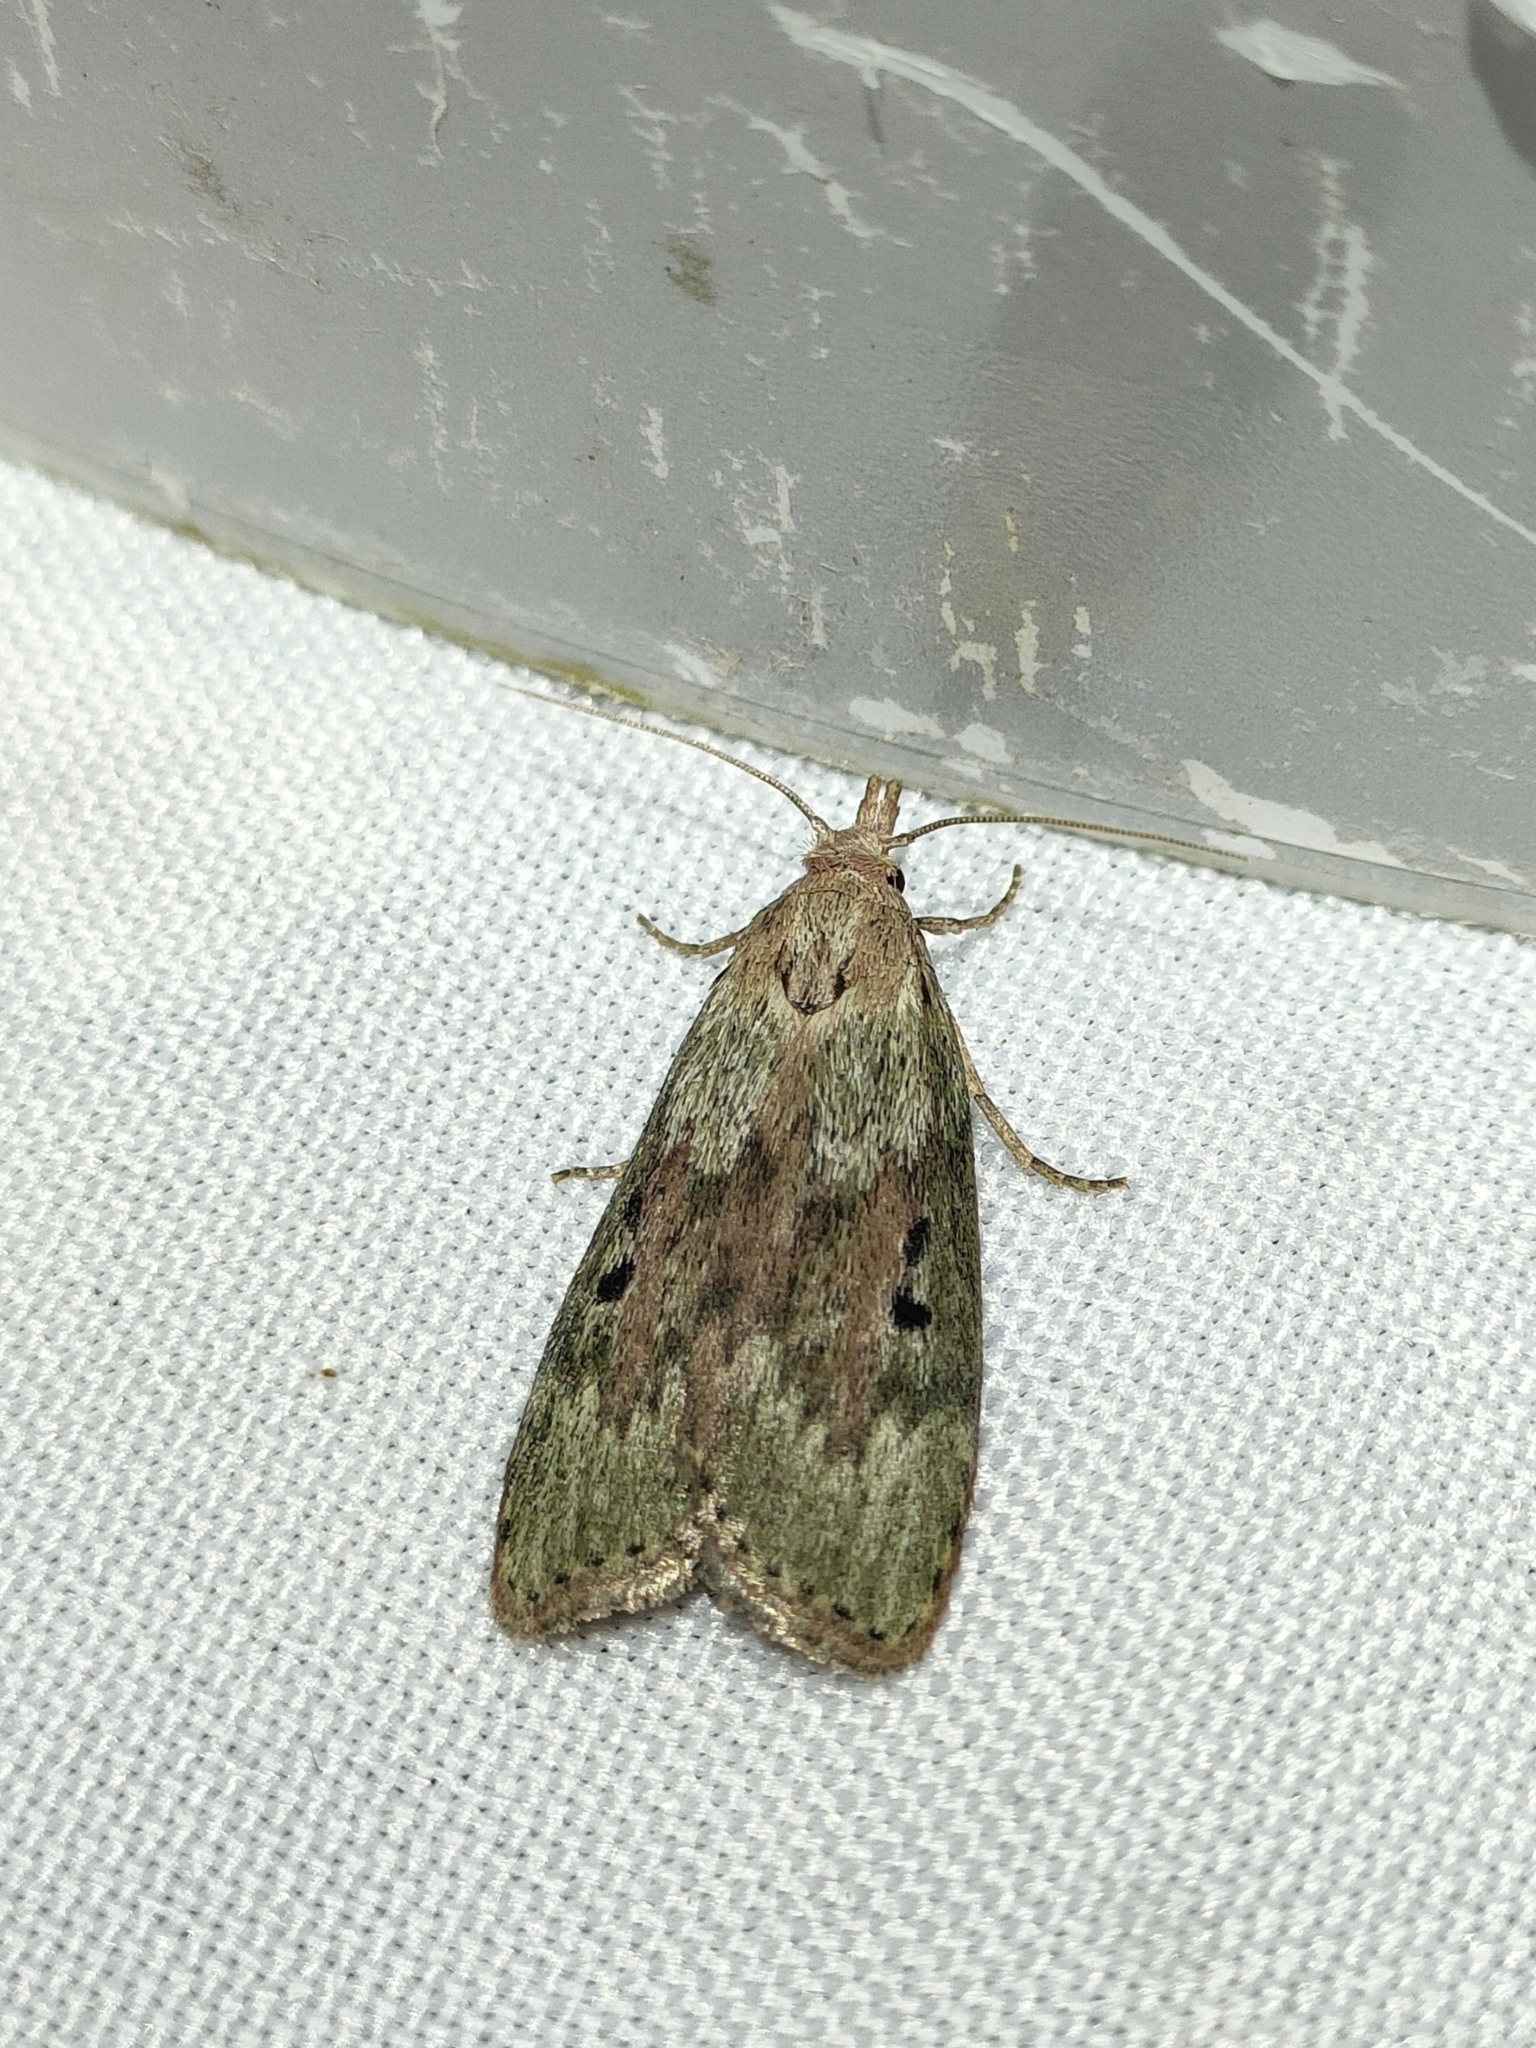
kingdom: Animalia
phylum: Arthropoda
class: Insecta
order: Lepidoptera
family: Pyralidae
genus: Aphomia
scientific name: Aphomia sociella
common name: Bee moth
